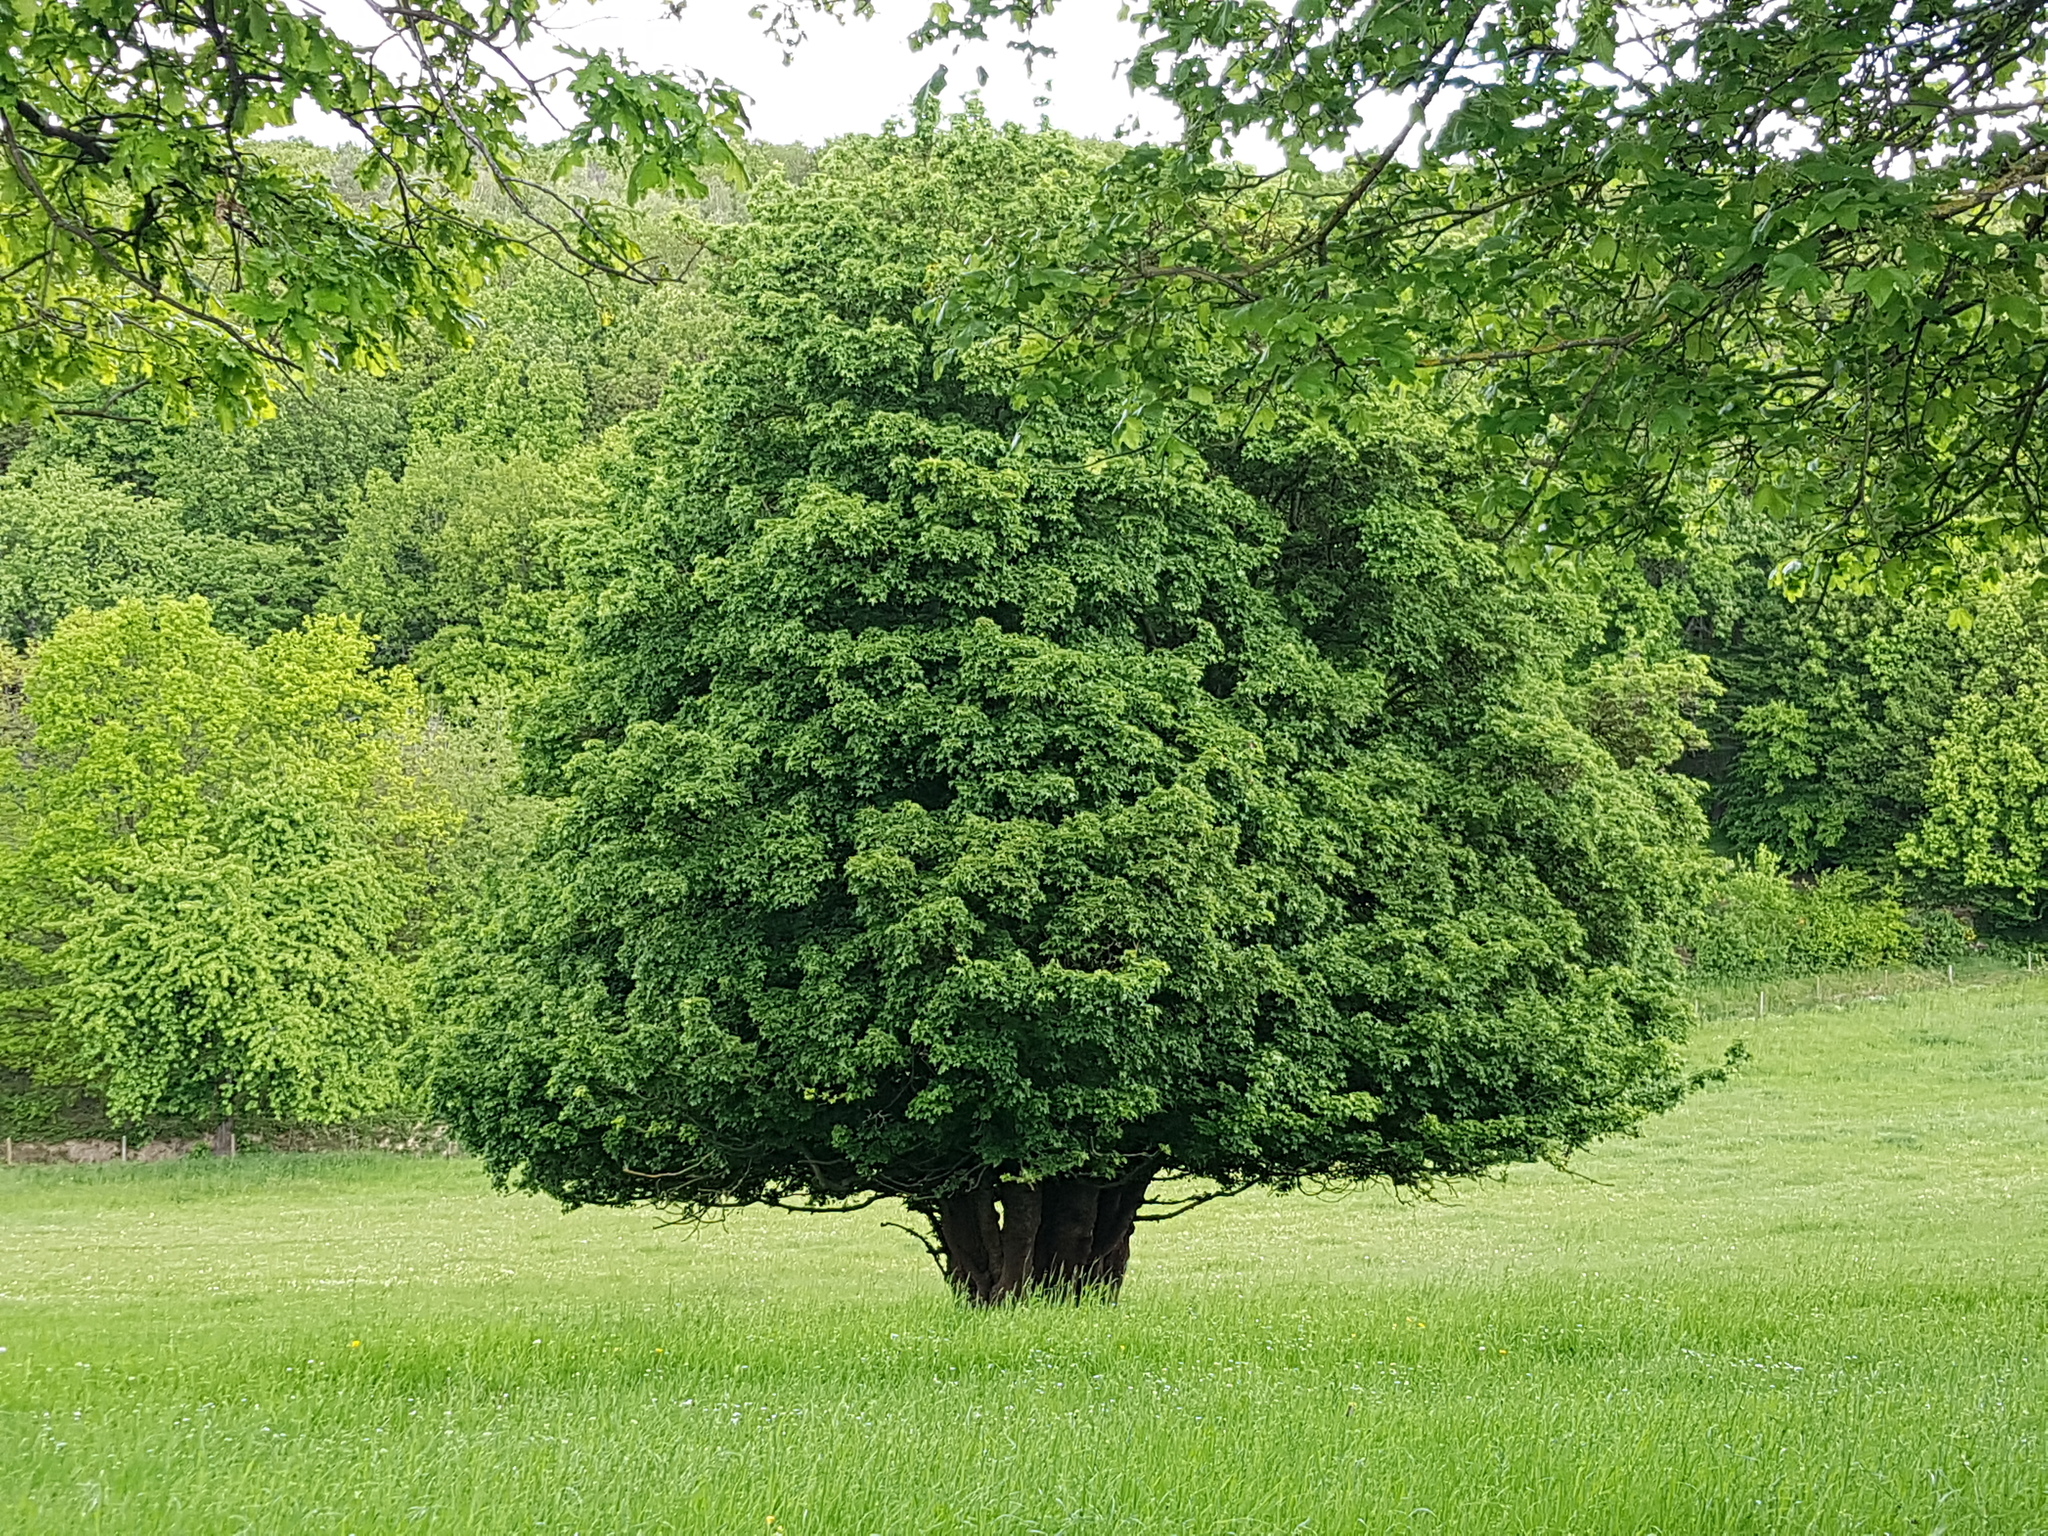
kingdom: Plantae
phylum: Tracheophyta
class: Magnoliopsida
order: Sapindales
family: Sapindaceae
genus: Acer
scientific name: Acer campestre
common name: Field maple
